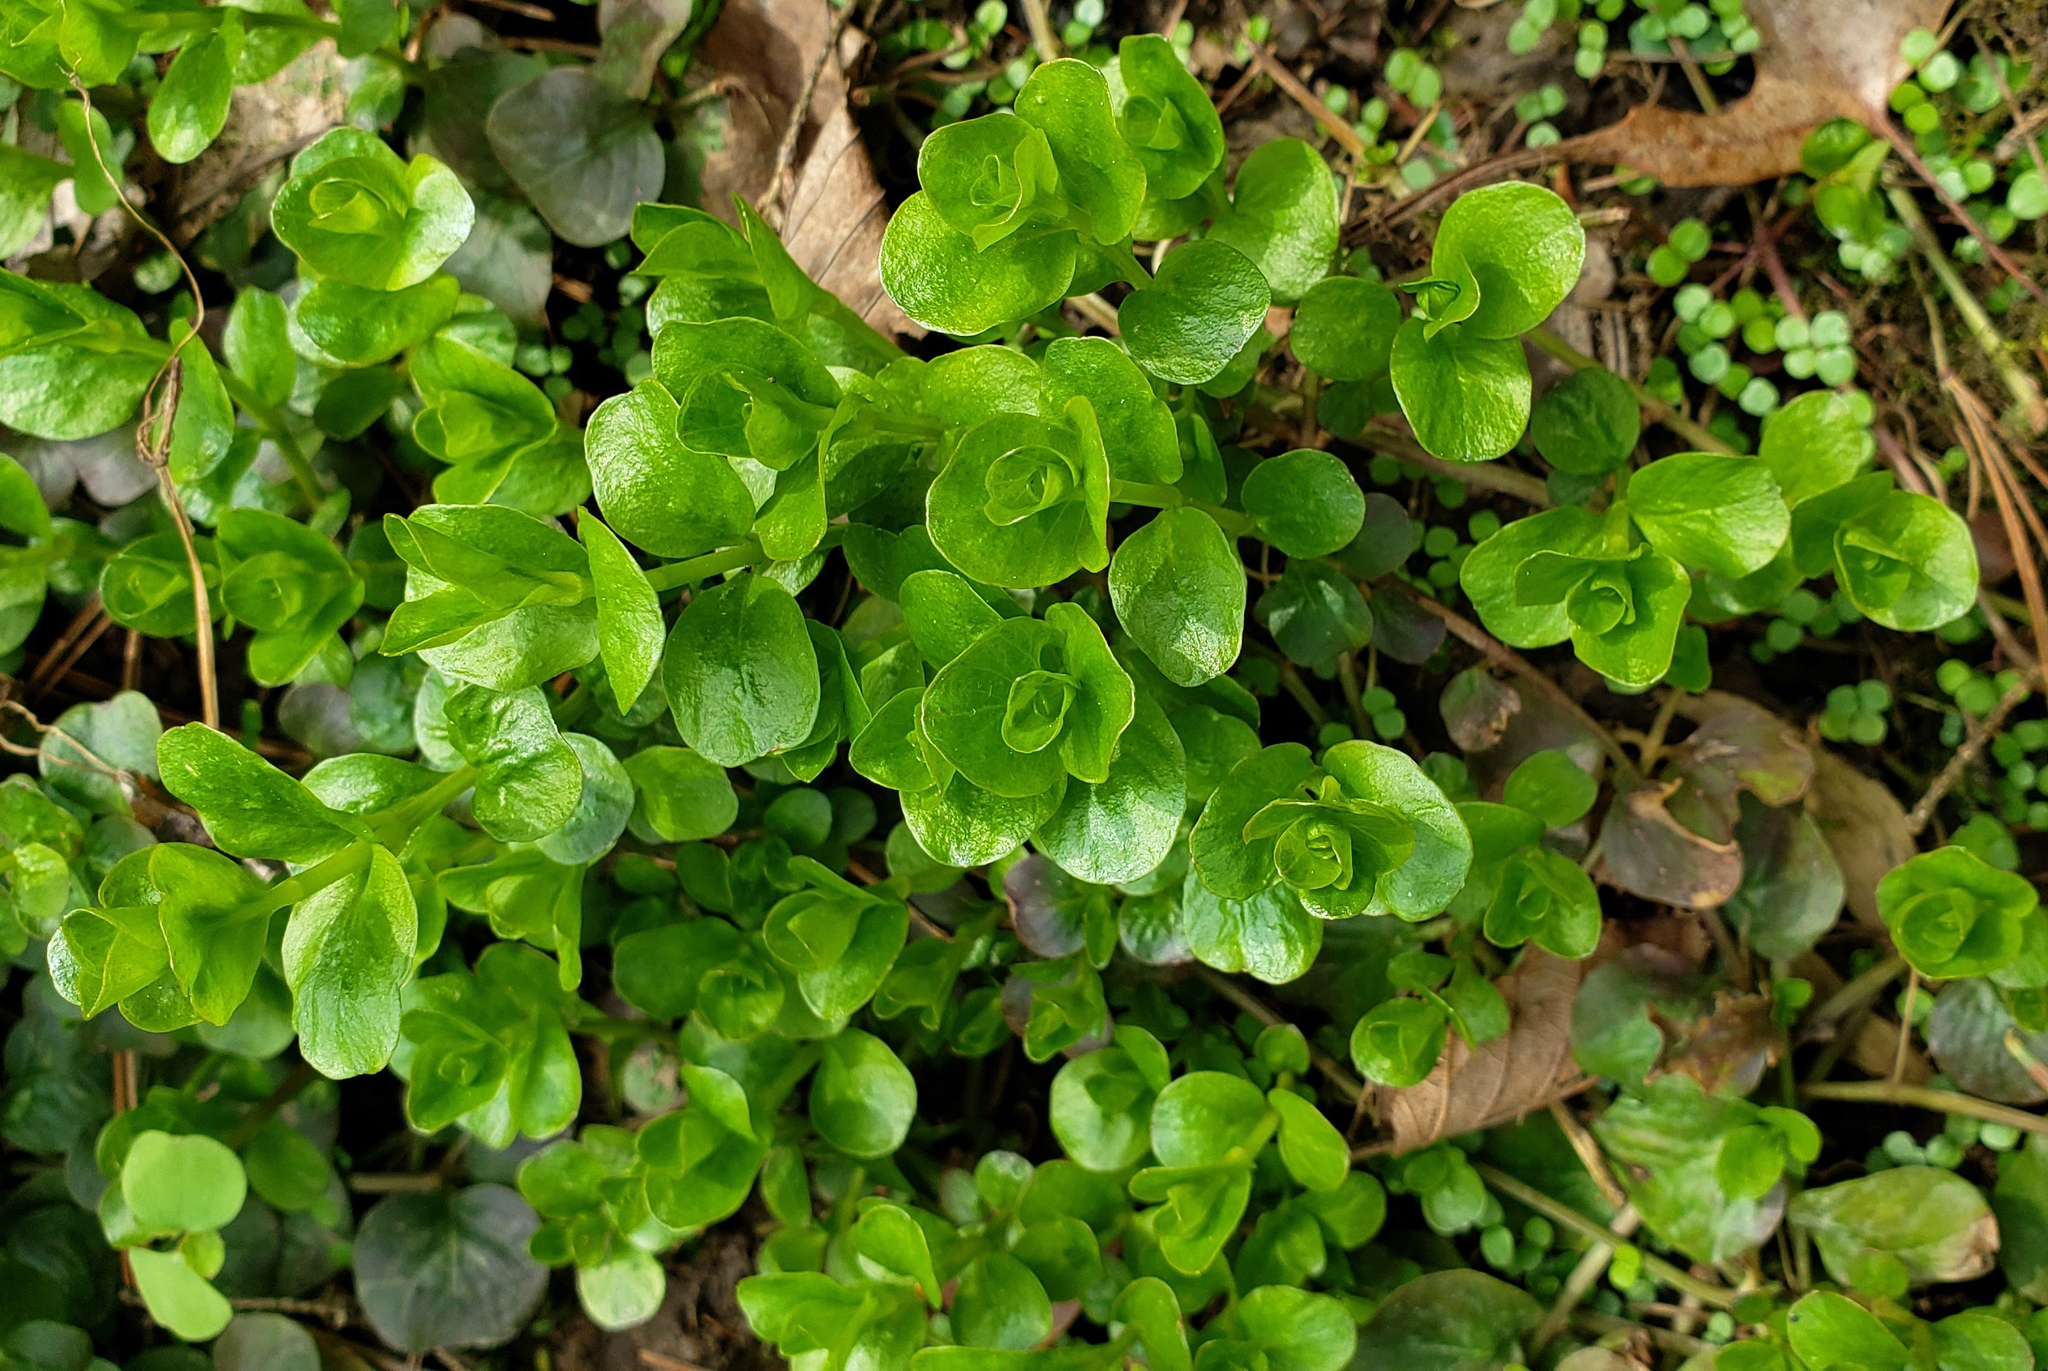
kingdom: Plantae
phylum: Tracheophyta
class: Magnoliopsida
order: Ericales
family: Primulaceae
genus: Lysimachia
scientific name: Lysimachia nummularia
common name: Moneywort
